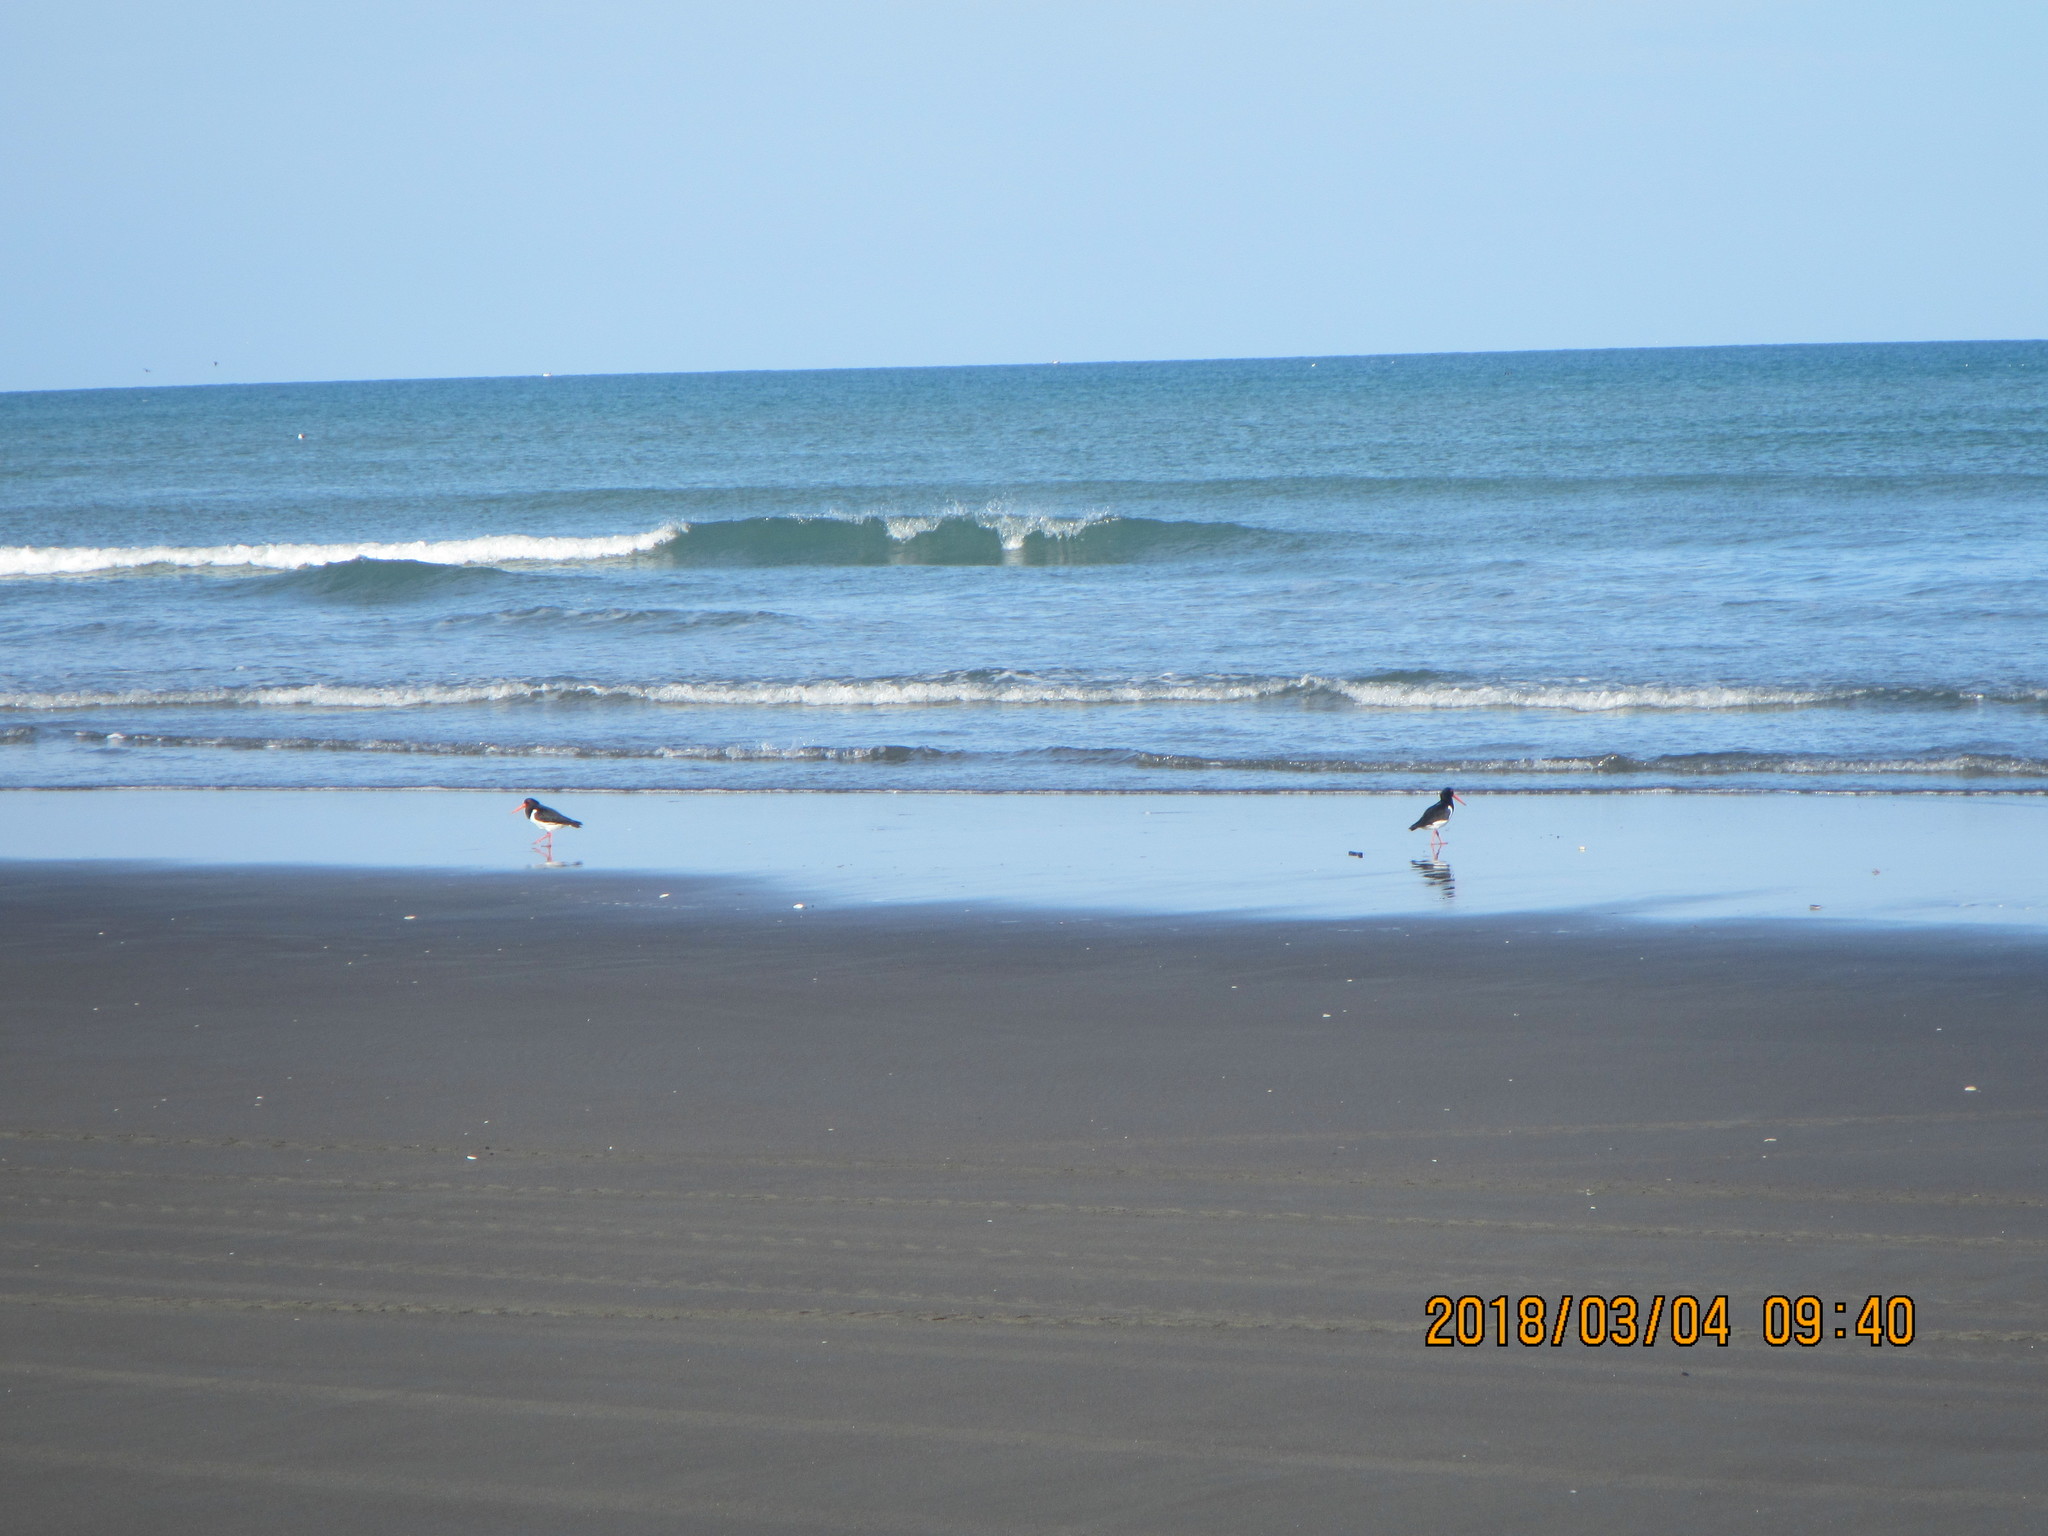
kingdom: Animalia
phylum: Chordata
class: Aves
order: Charadriiformes
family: Haematopodidae
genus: Haematopus
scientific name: Haematopus finschi
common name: South island oystercatcher
